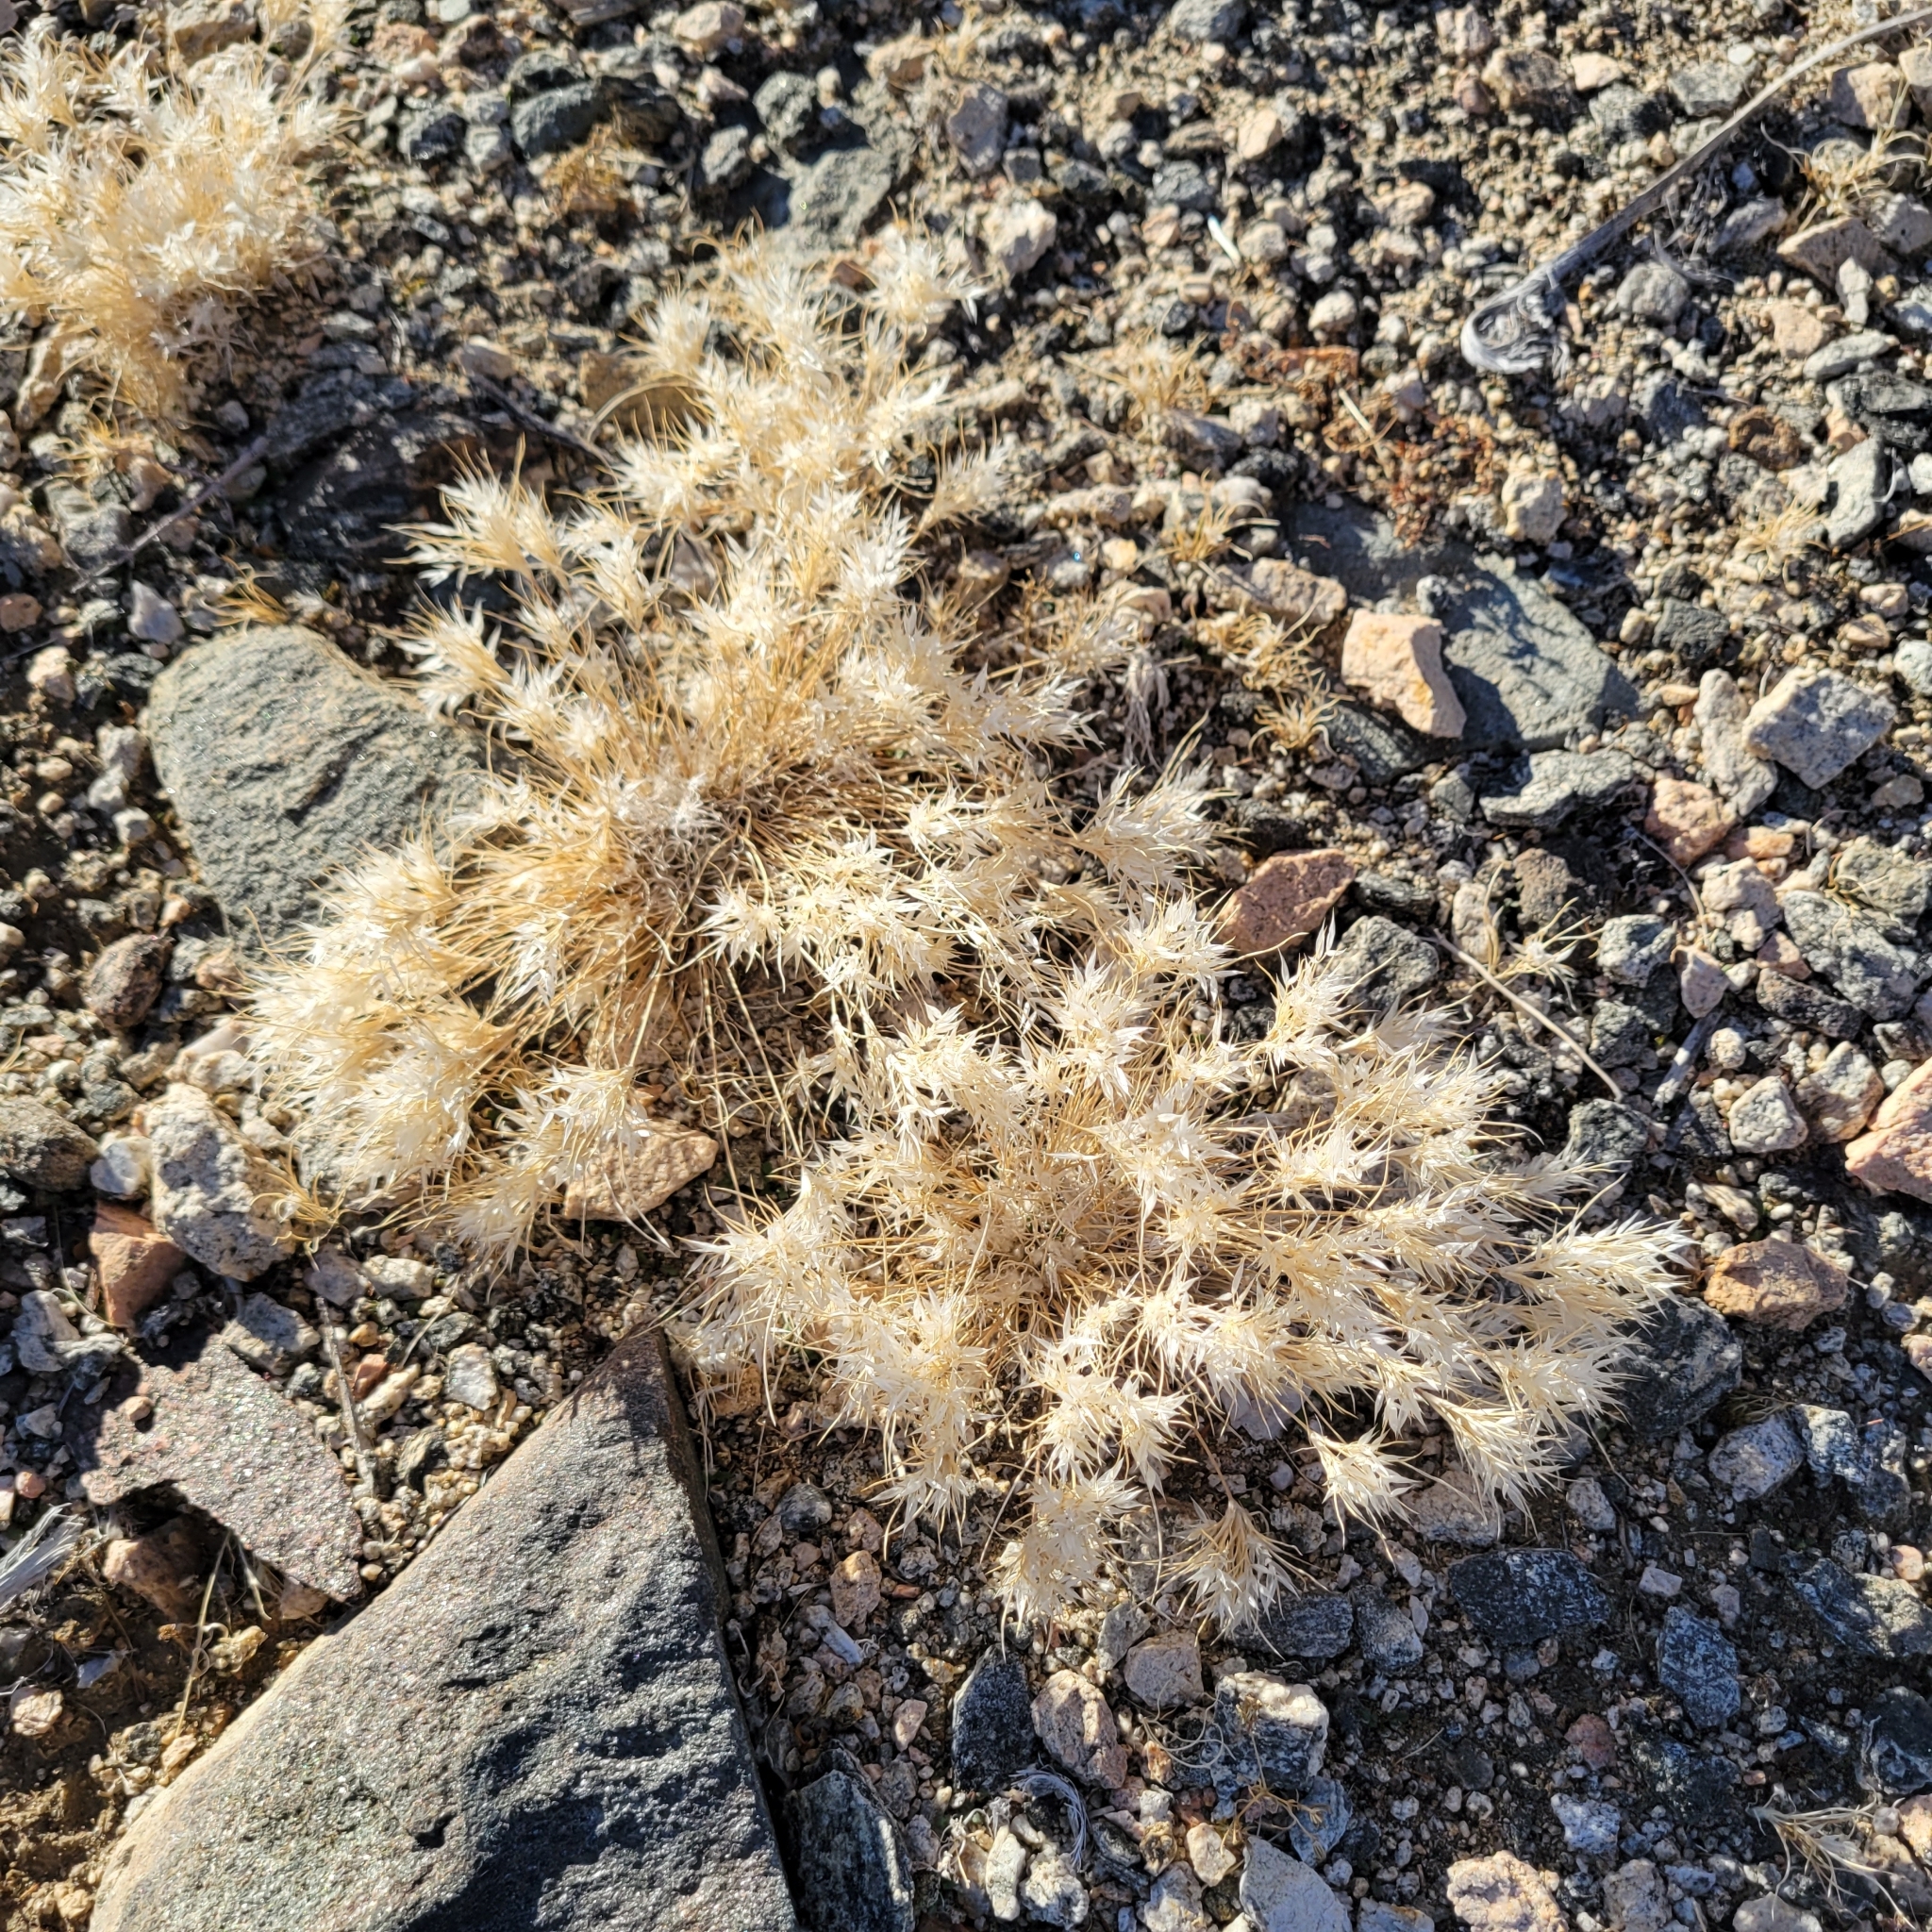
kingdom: Plantae
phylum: Tracheophyta
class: Liliopsida
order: Poales
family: Poaceae
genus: Dasyochloa
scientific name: Dasyochloa pulchella
